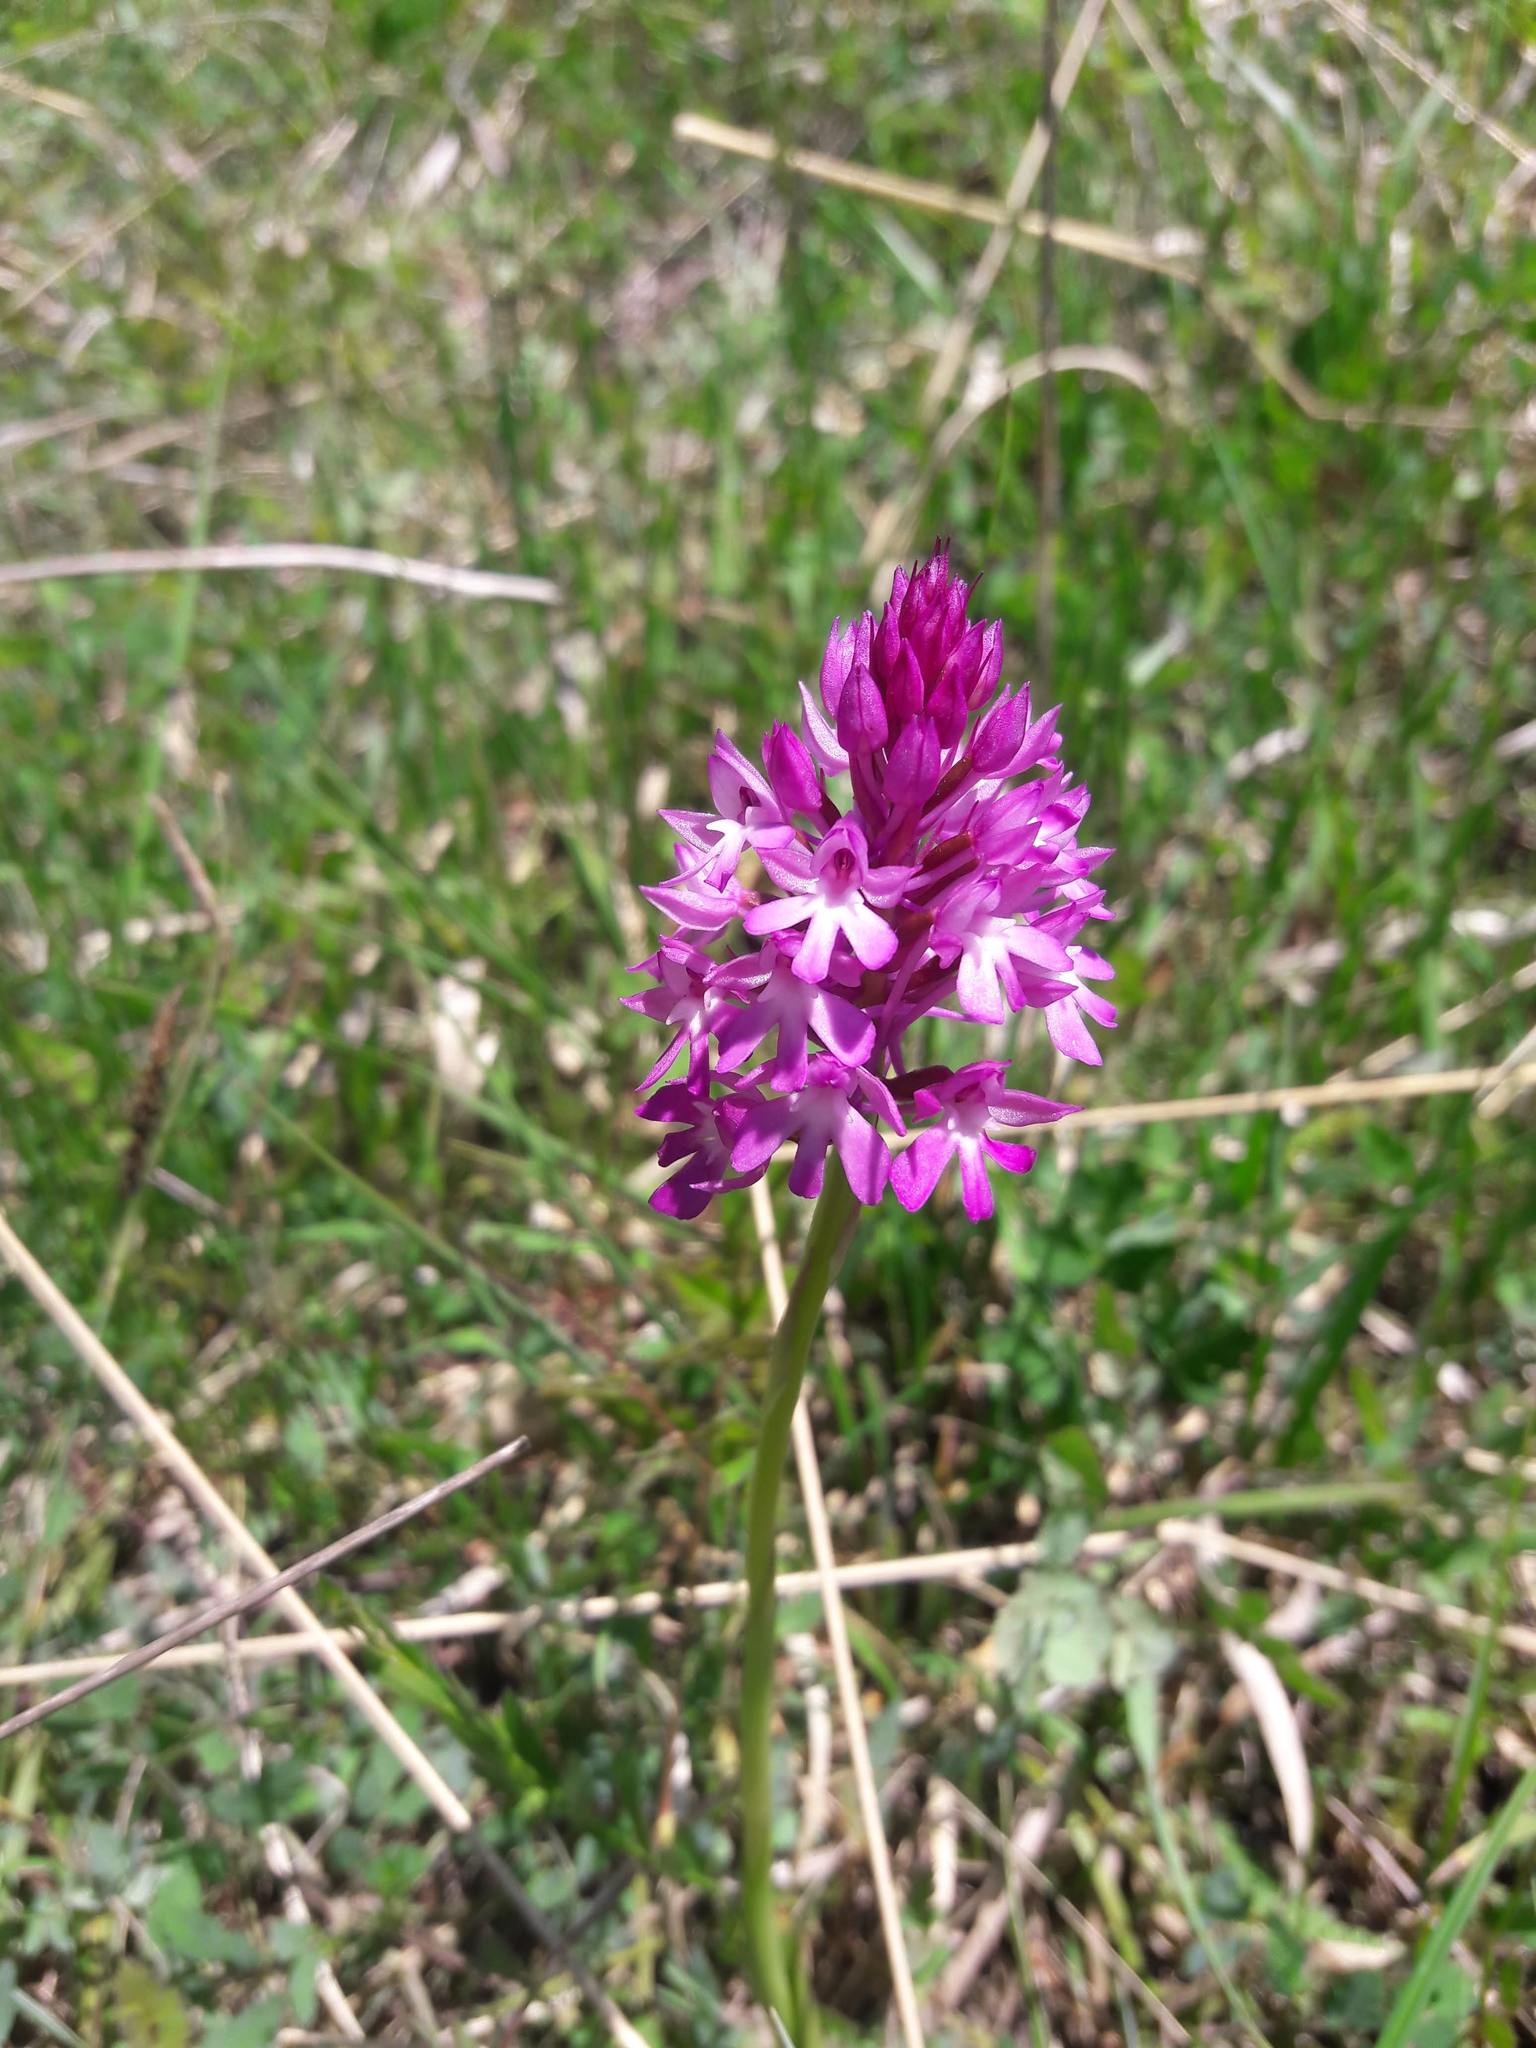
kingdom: Plantae
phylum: Tracheophyta
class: Liliopsida
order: Asparagales
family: Orchidaceae
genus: Anacamptis
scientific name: Anacamptis pyramidalis
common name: Pyramidal orchid
